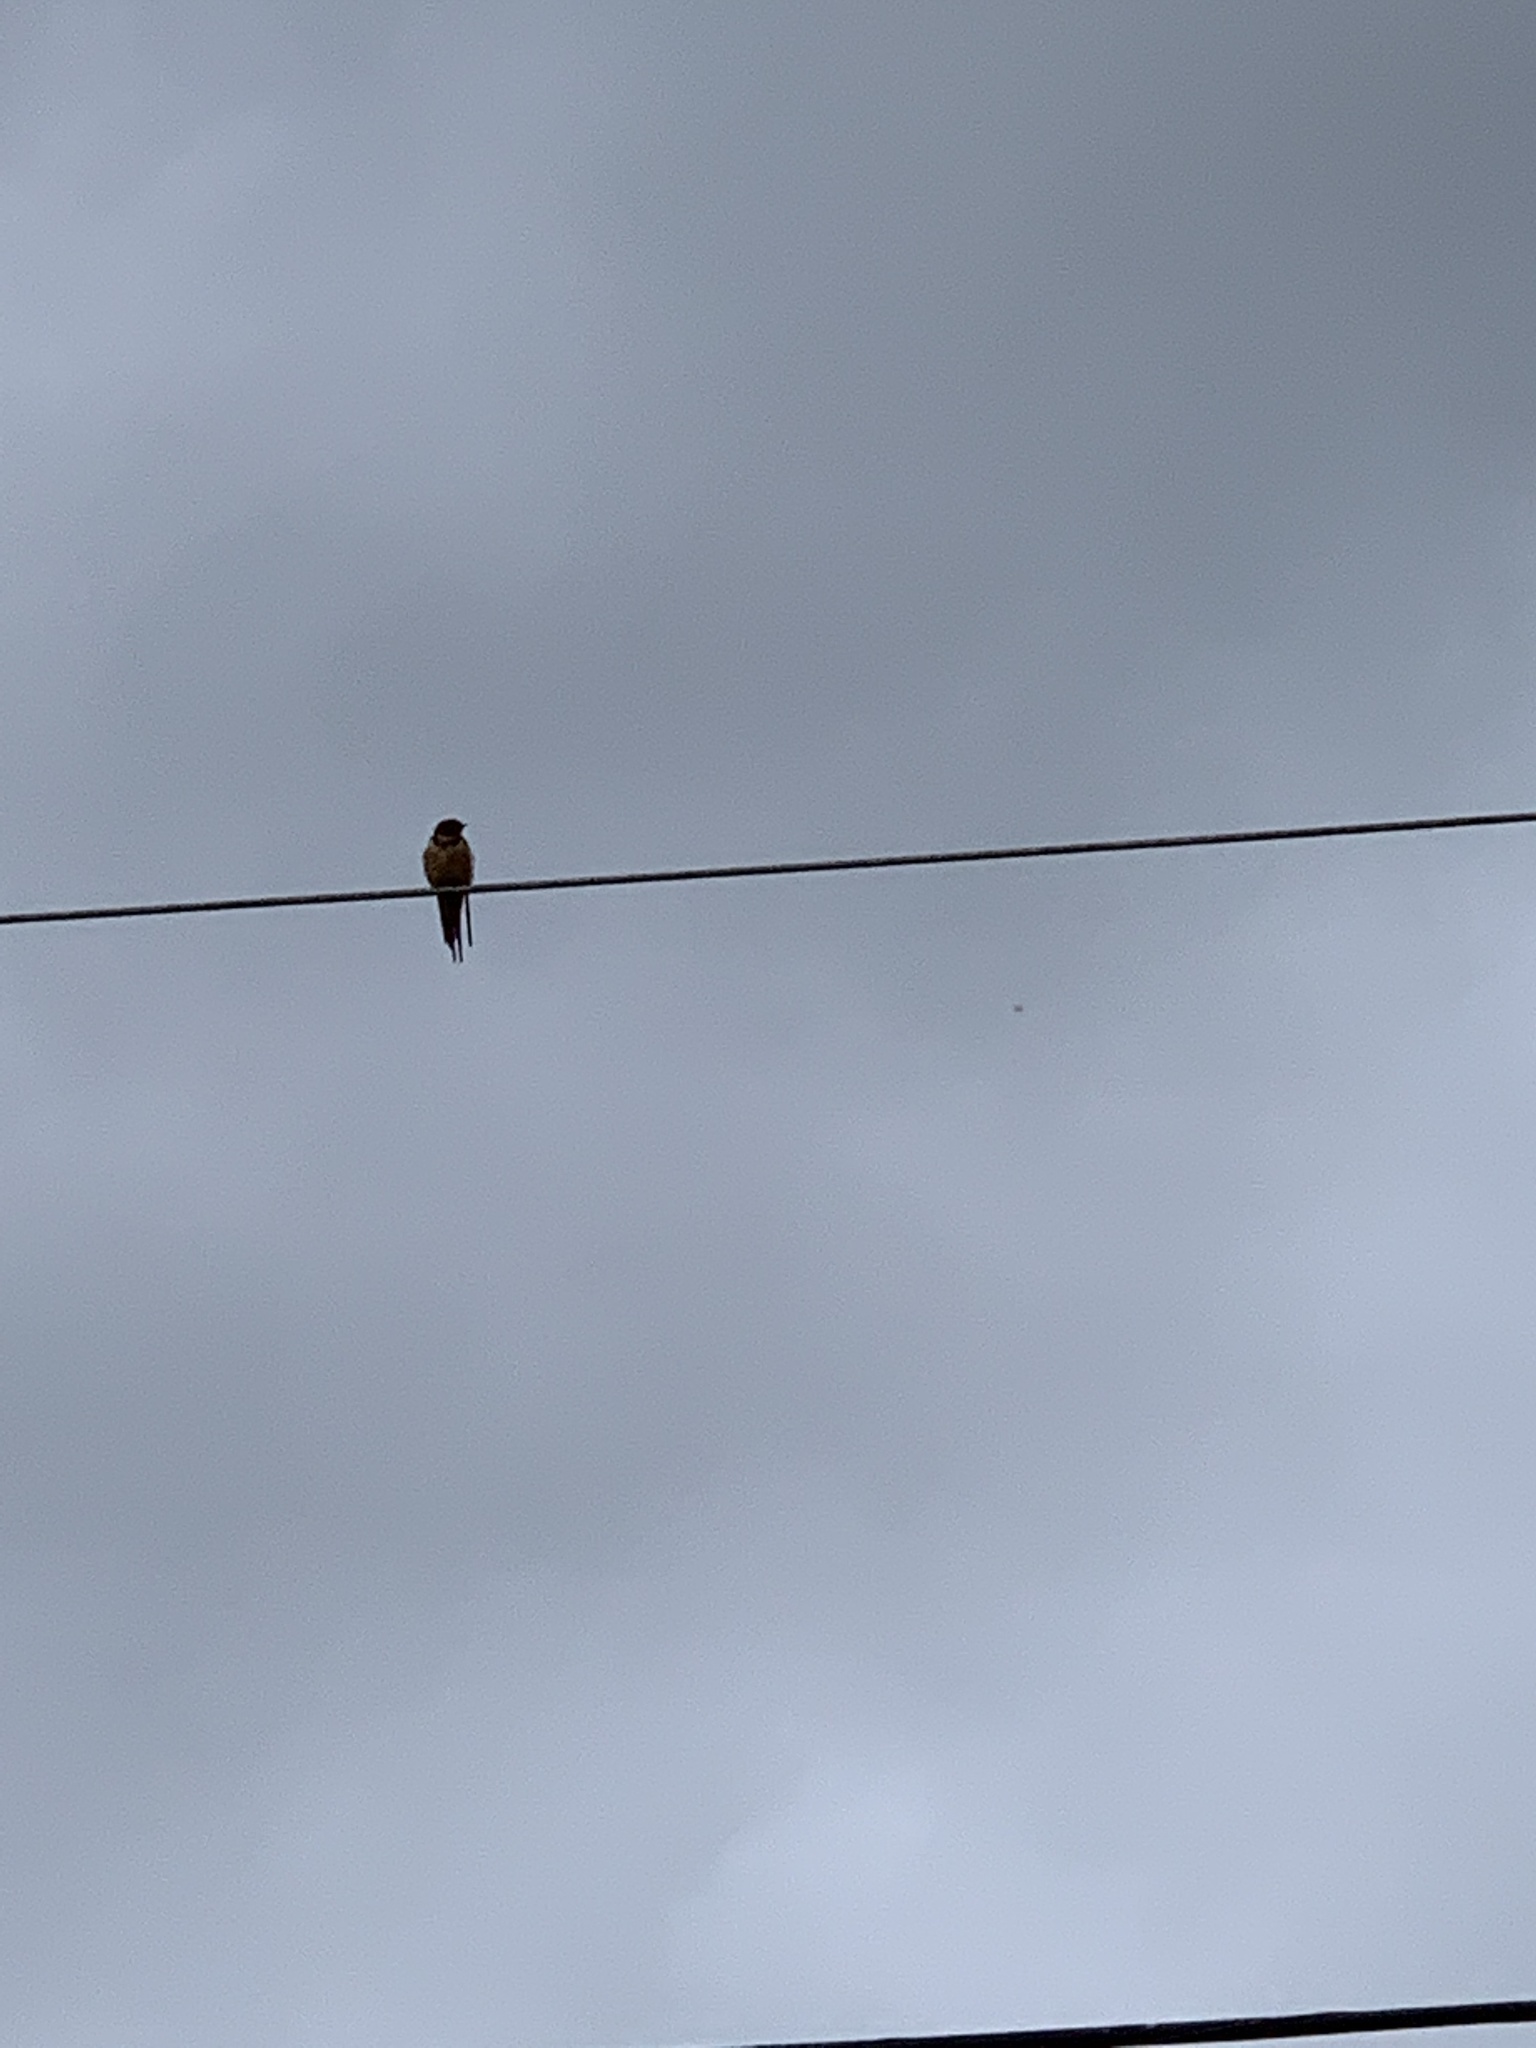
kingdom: Animalia
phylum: Chordata
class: Aves
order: Passeriformes
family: Hirundinidae
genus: Hirundo
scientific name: Hirundo rustica
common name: Barn swallow
